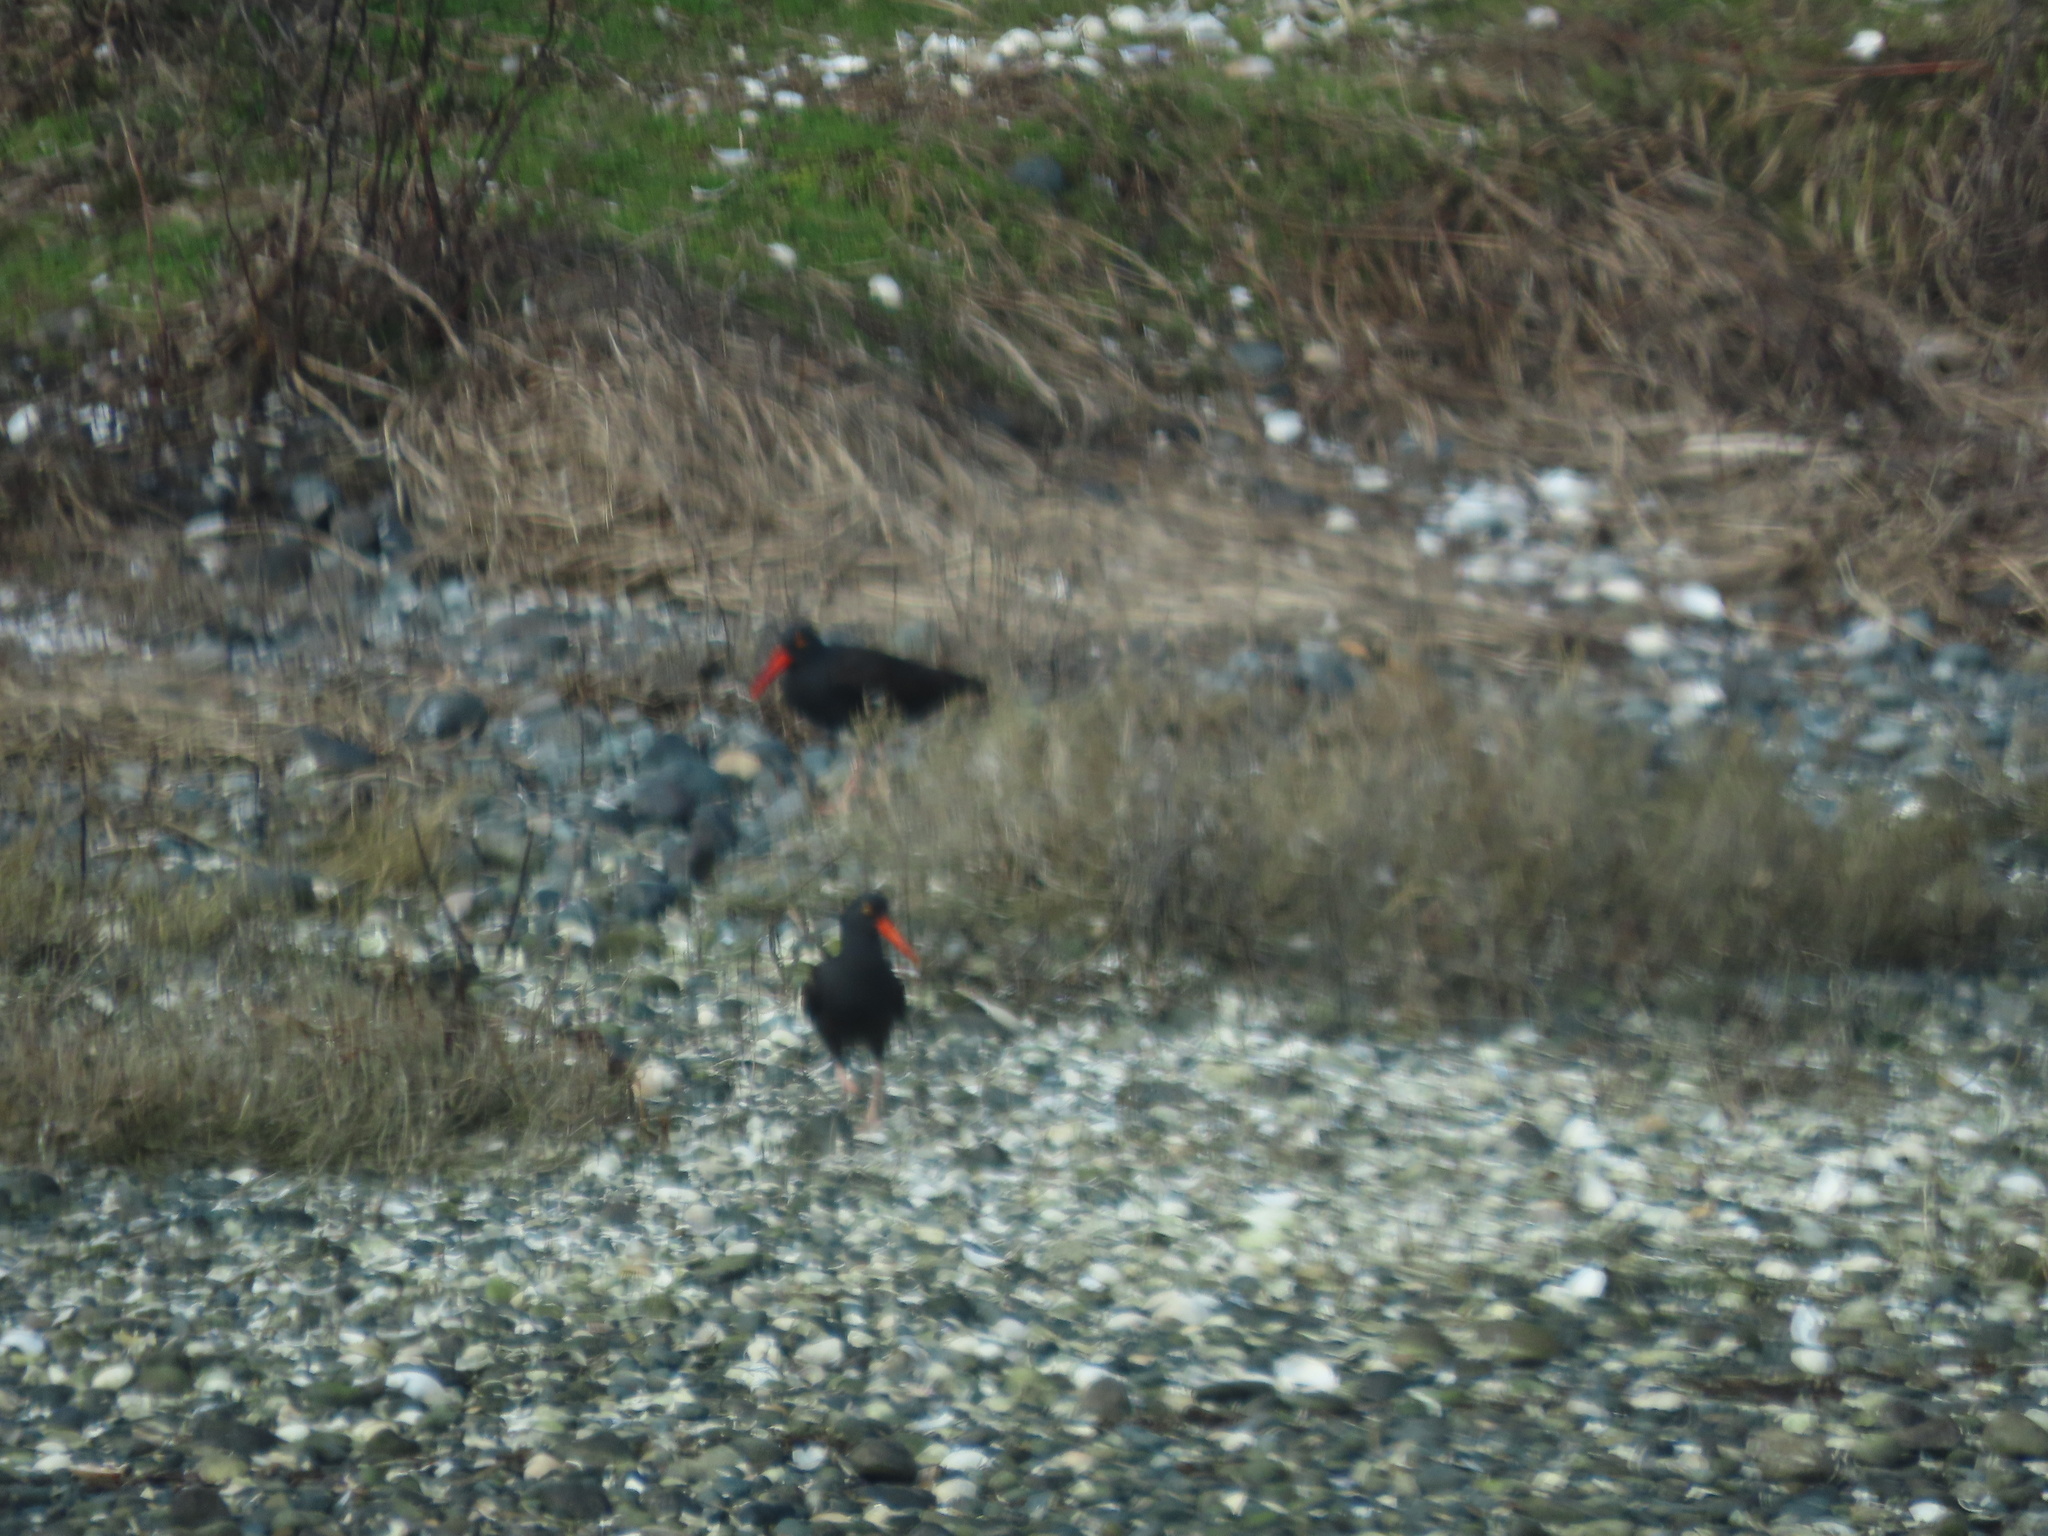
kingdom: Animalia
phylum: Chordata
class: Aves
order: Charadriiformes
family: Haematopodidae
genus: Haematopus
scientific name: Haematopus bachmani
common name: Black oystercatcher
